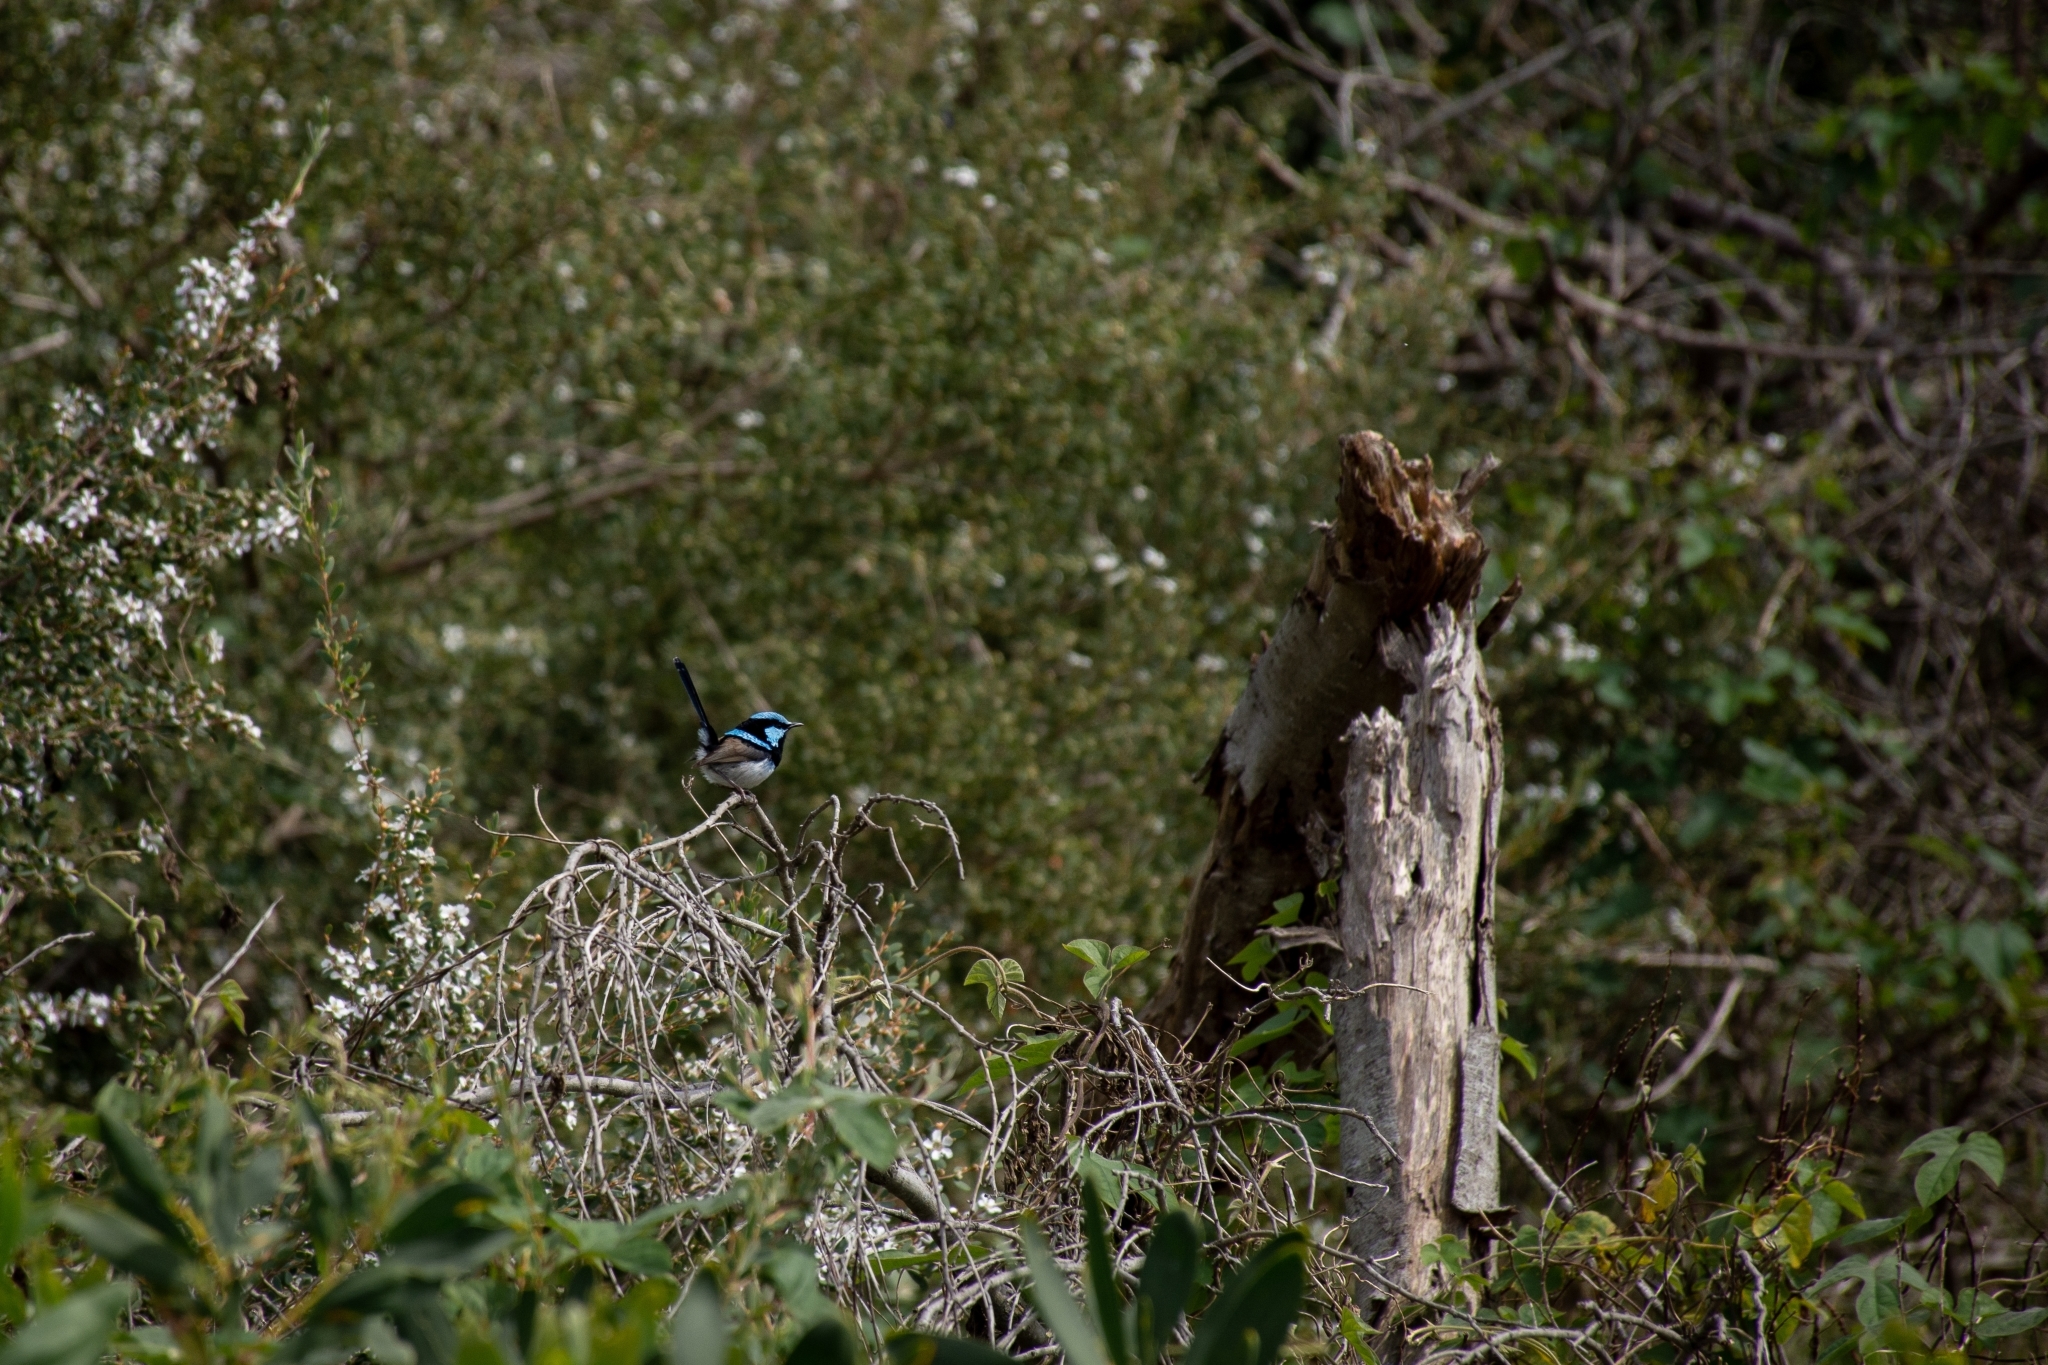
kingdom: Animalia
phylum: Chordata
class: Aves
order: Passeriformes
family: Maluridae
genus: Malurus
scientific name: Malurus cyaneus
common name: Superb fairywren
